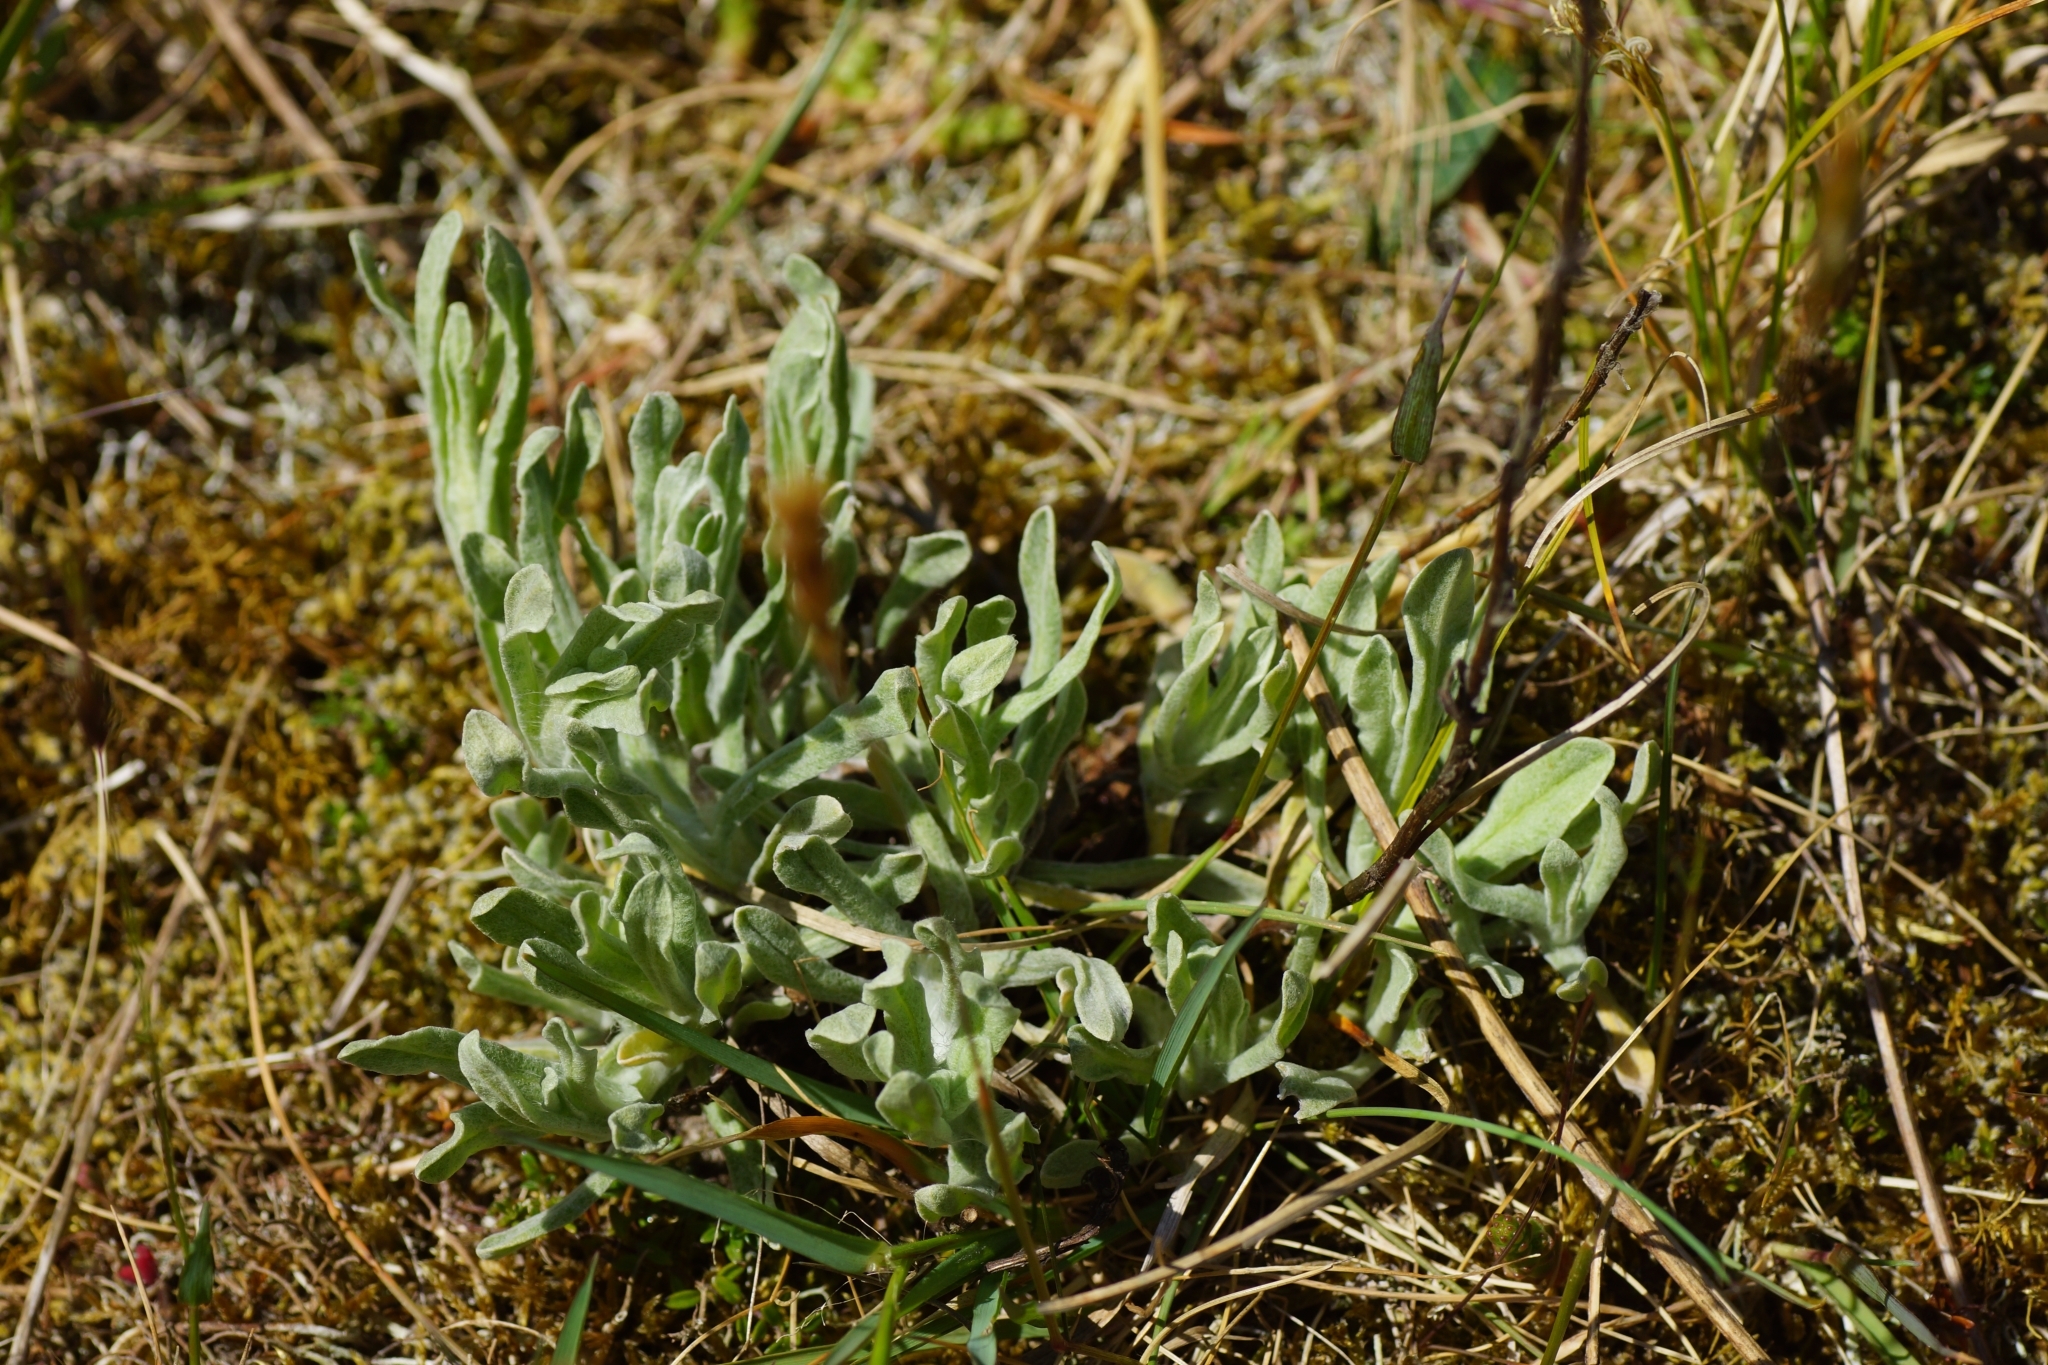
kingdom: Plantae
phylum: Tracheophyta
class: Magnoliopsida
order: Asterales
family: Asteraceae
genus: Helichrysum
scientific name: Helichrysum arenarium
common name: Strawflower
